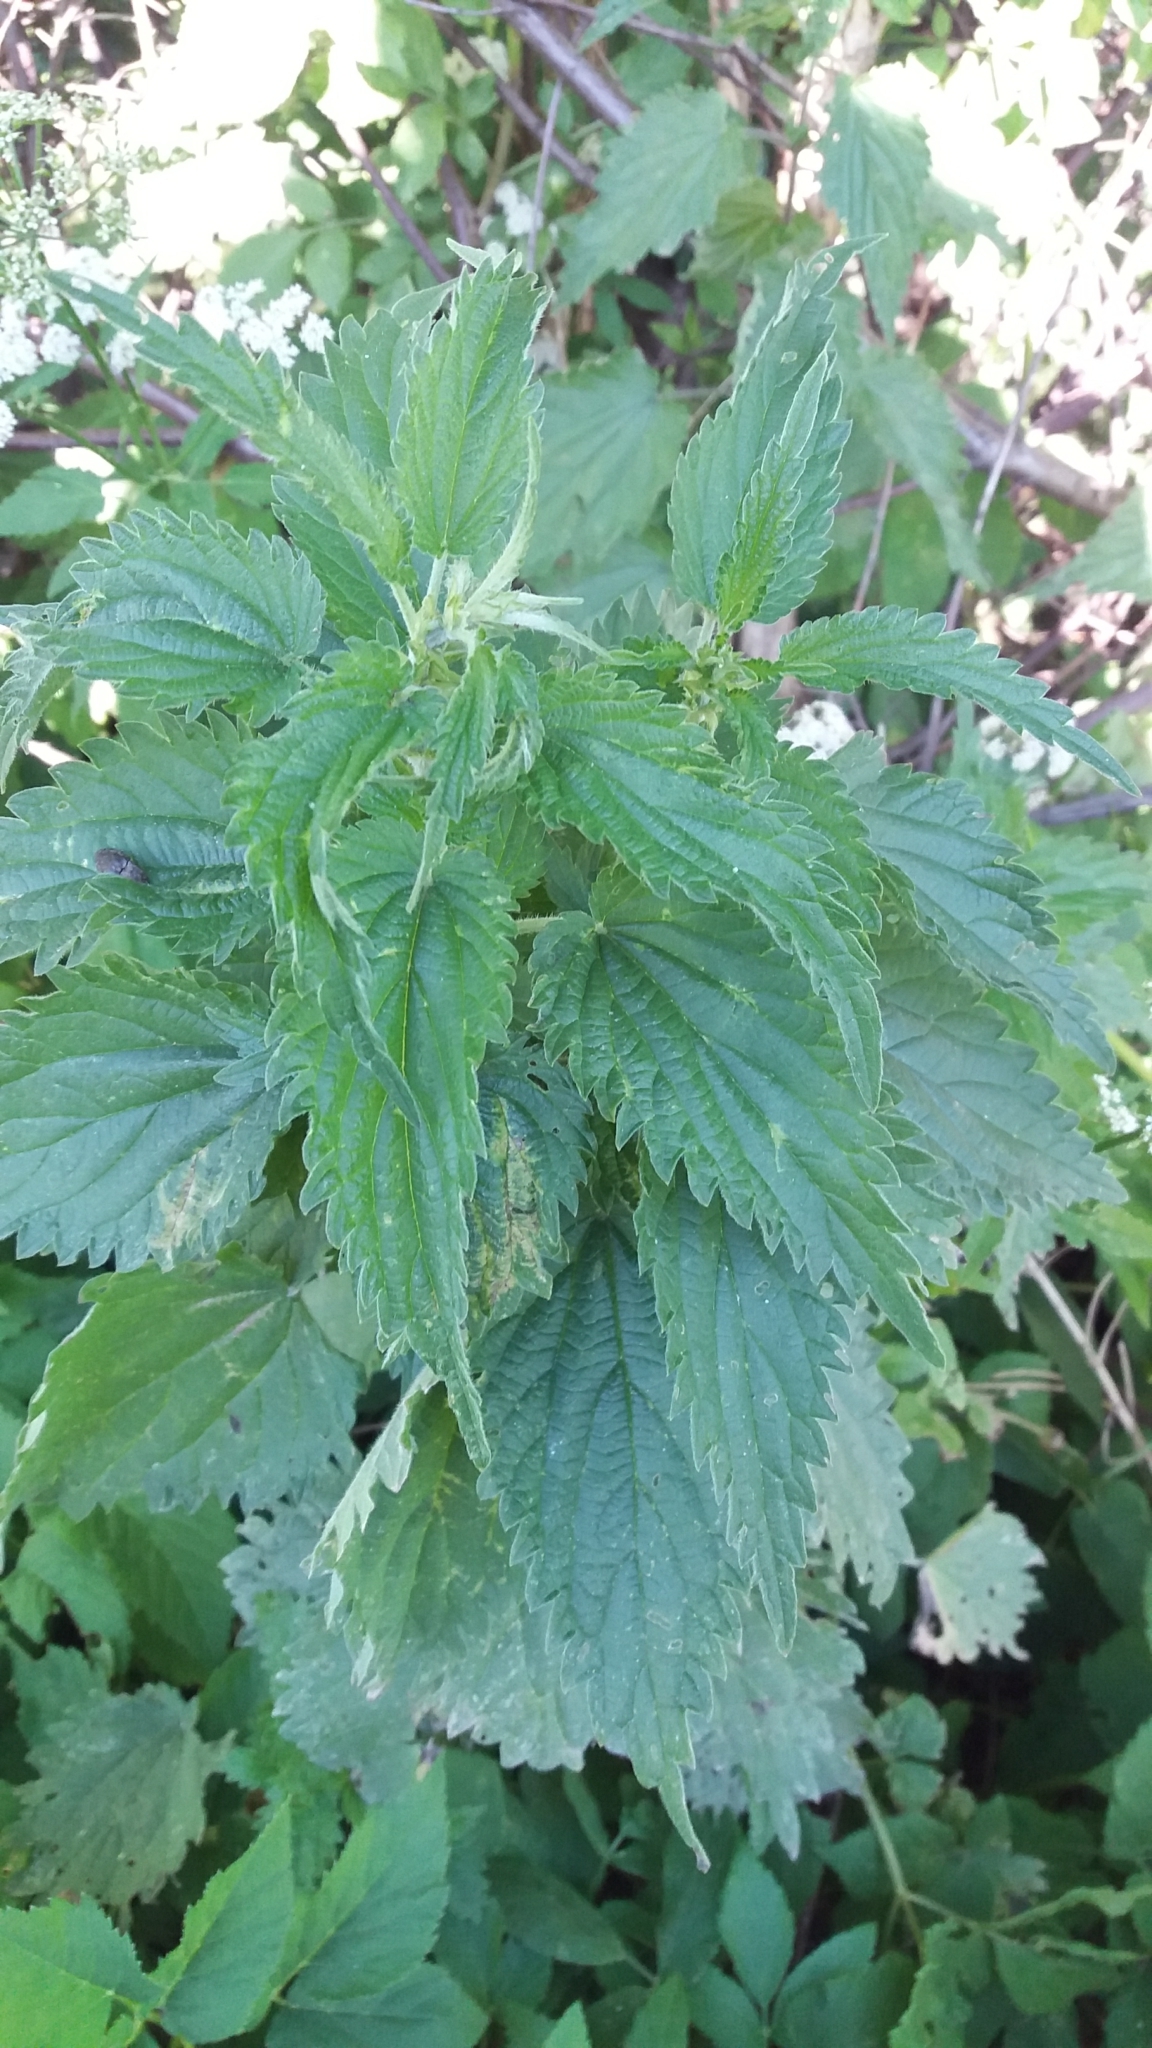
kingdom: Plantae
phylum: Tracheophyta
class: Magnoliopsida
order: Rosales
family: Urticaceae
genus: Urtica
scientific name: Urtica dioica
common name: Common nettle
